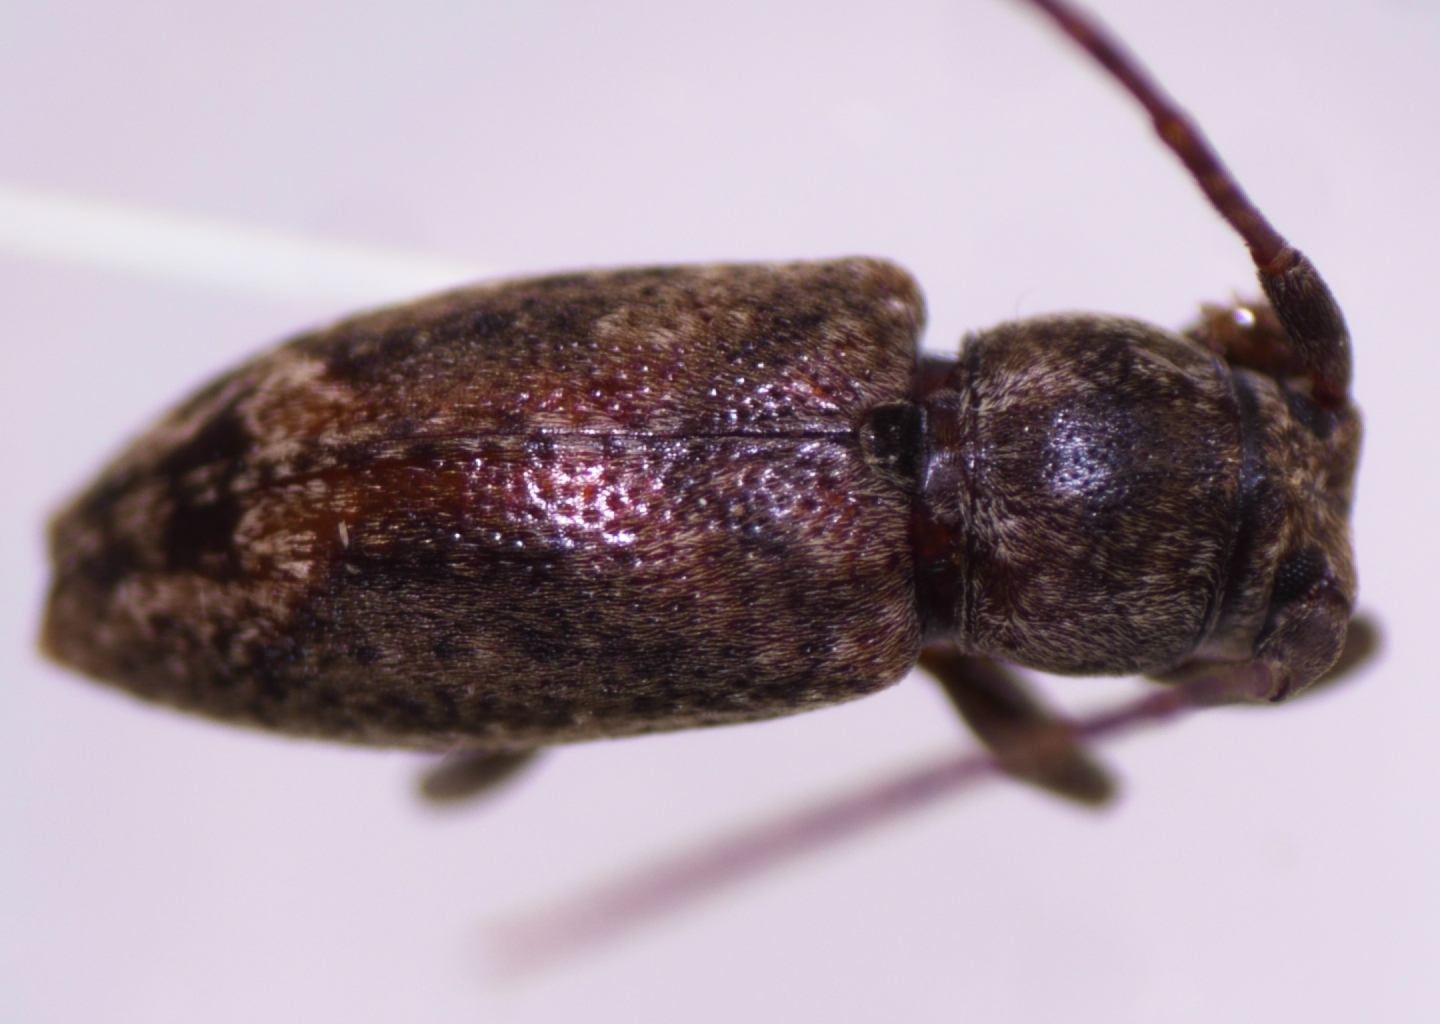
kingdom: Animalia
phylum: Arthropoda
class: Insecta
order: Coleoptera
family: Cerambycidae
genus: Pterolophia
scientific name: Pterolophia lateripicta
